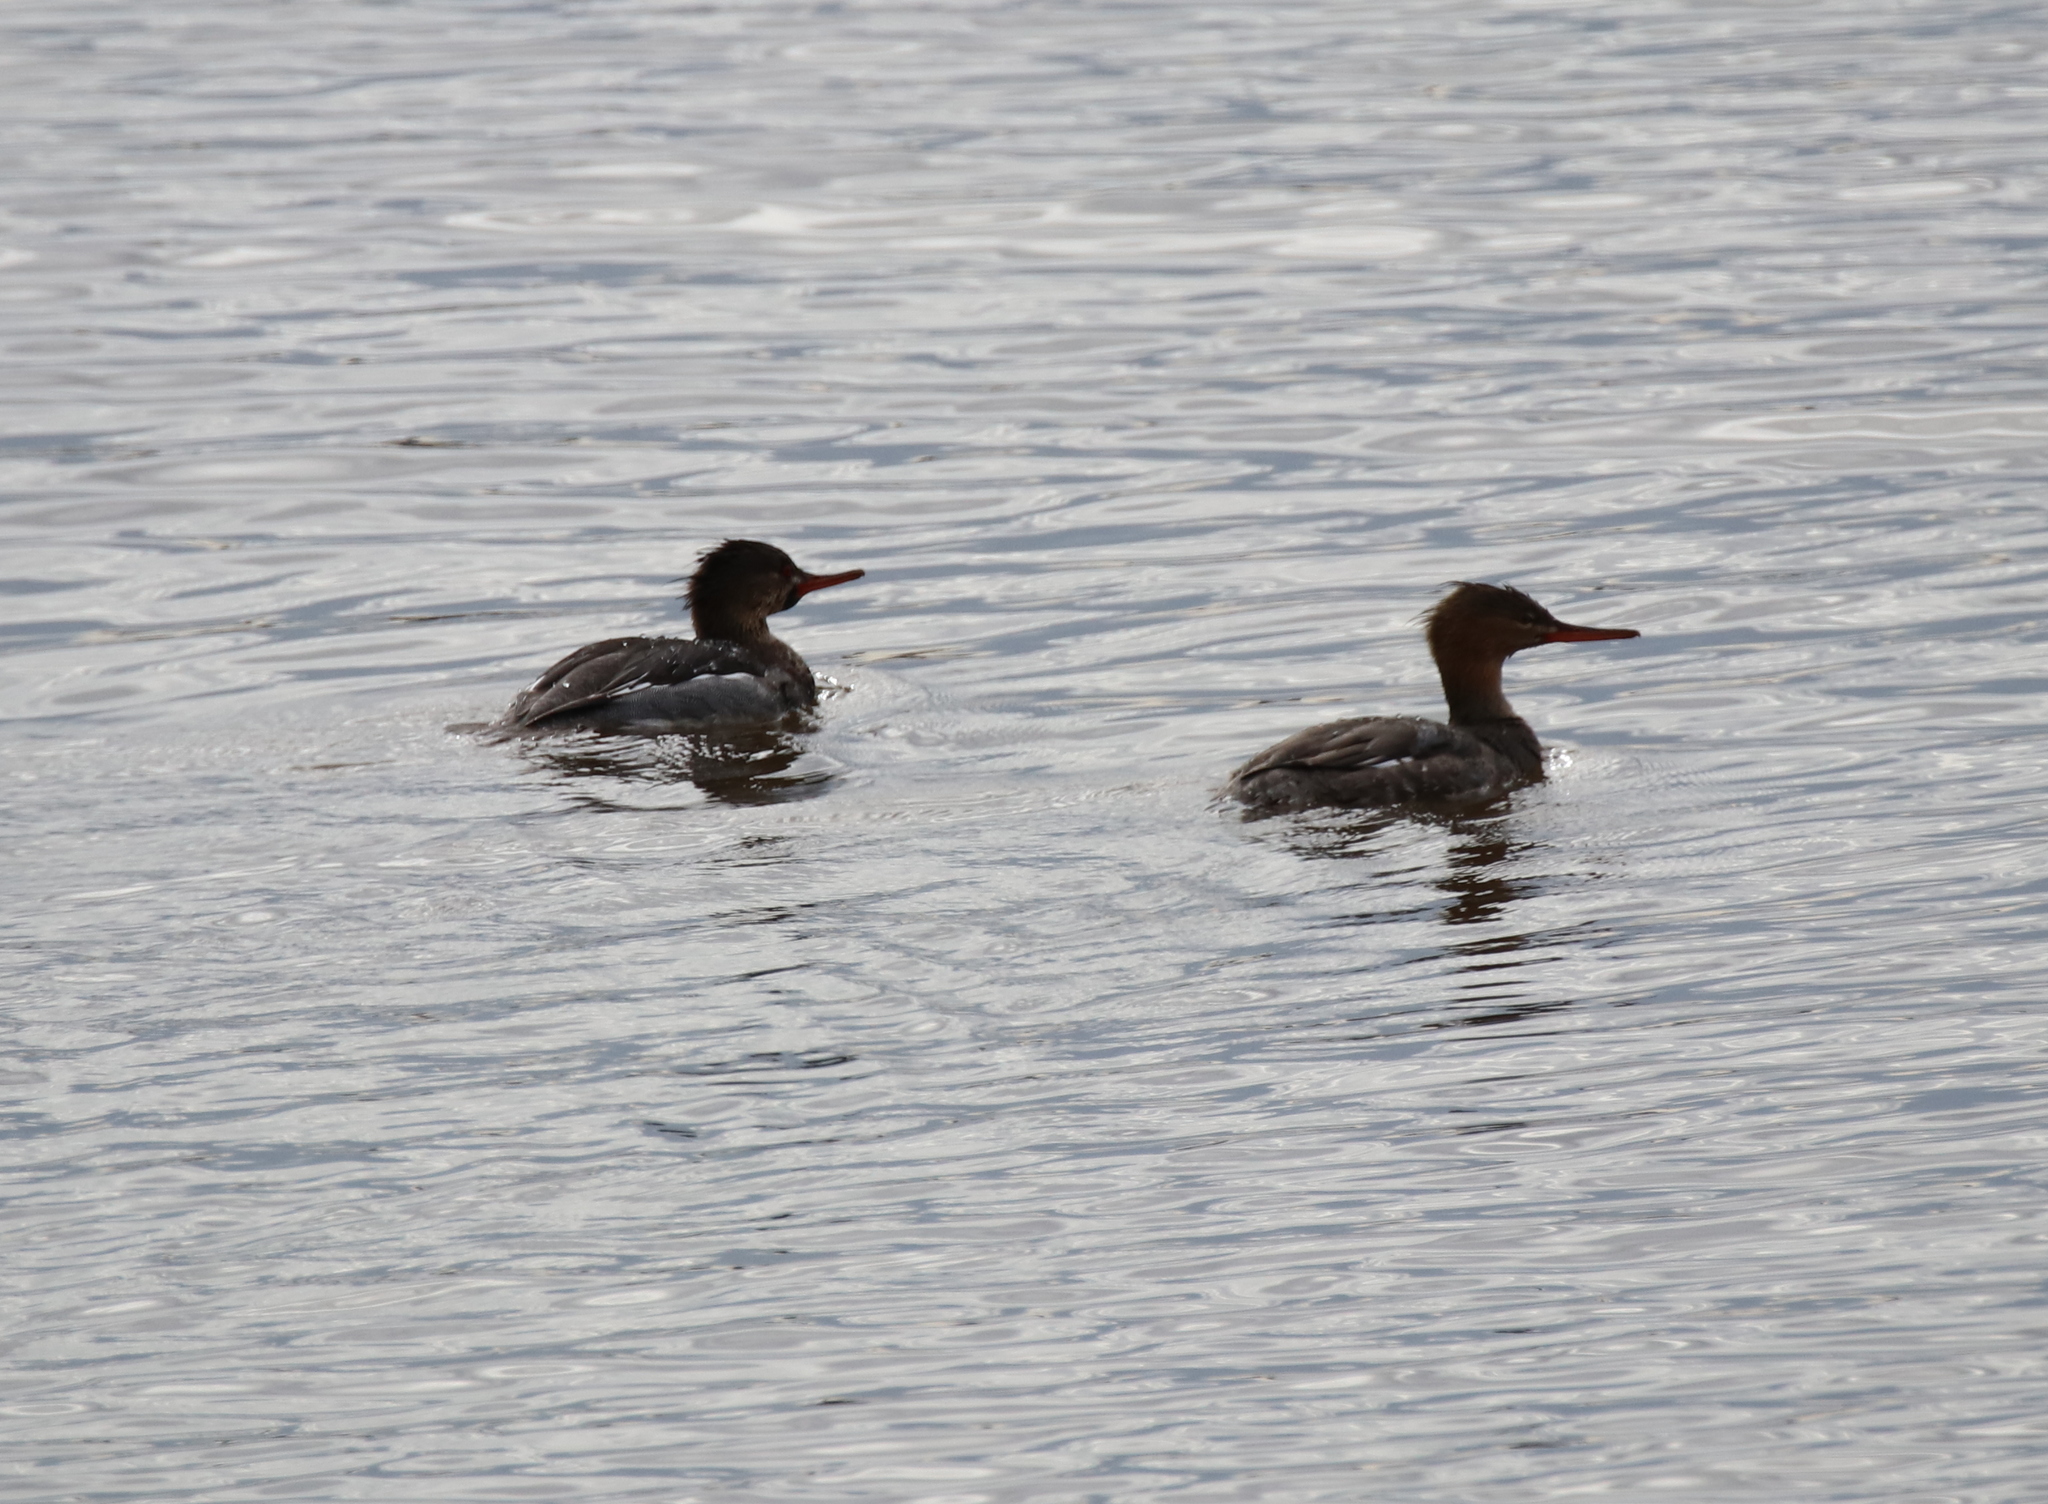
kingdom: Animalia
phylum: Chordata
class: Aves
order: Anseriformes
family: Anatidae
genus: Mergus
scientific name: Mergus serrator
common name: Red-breasted merganser
